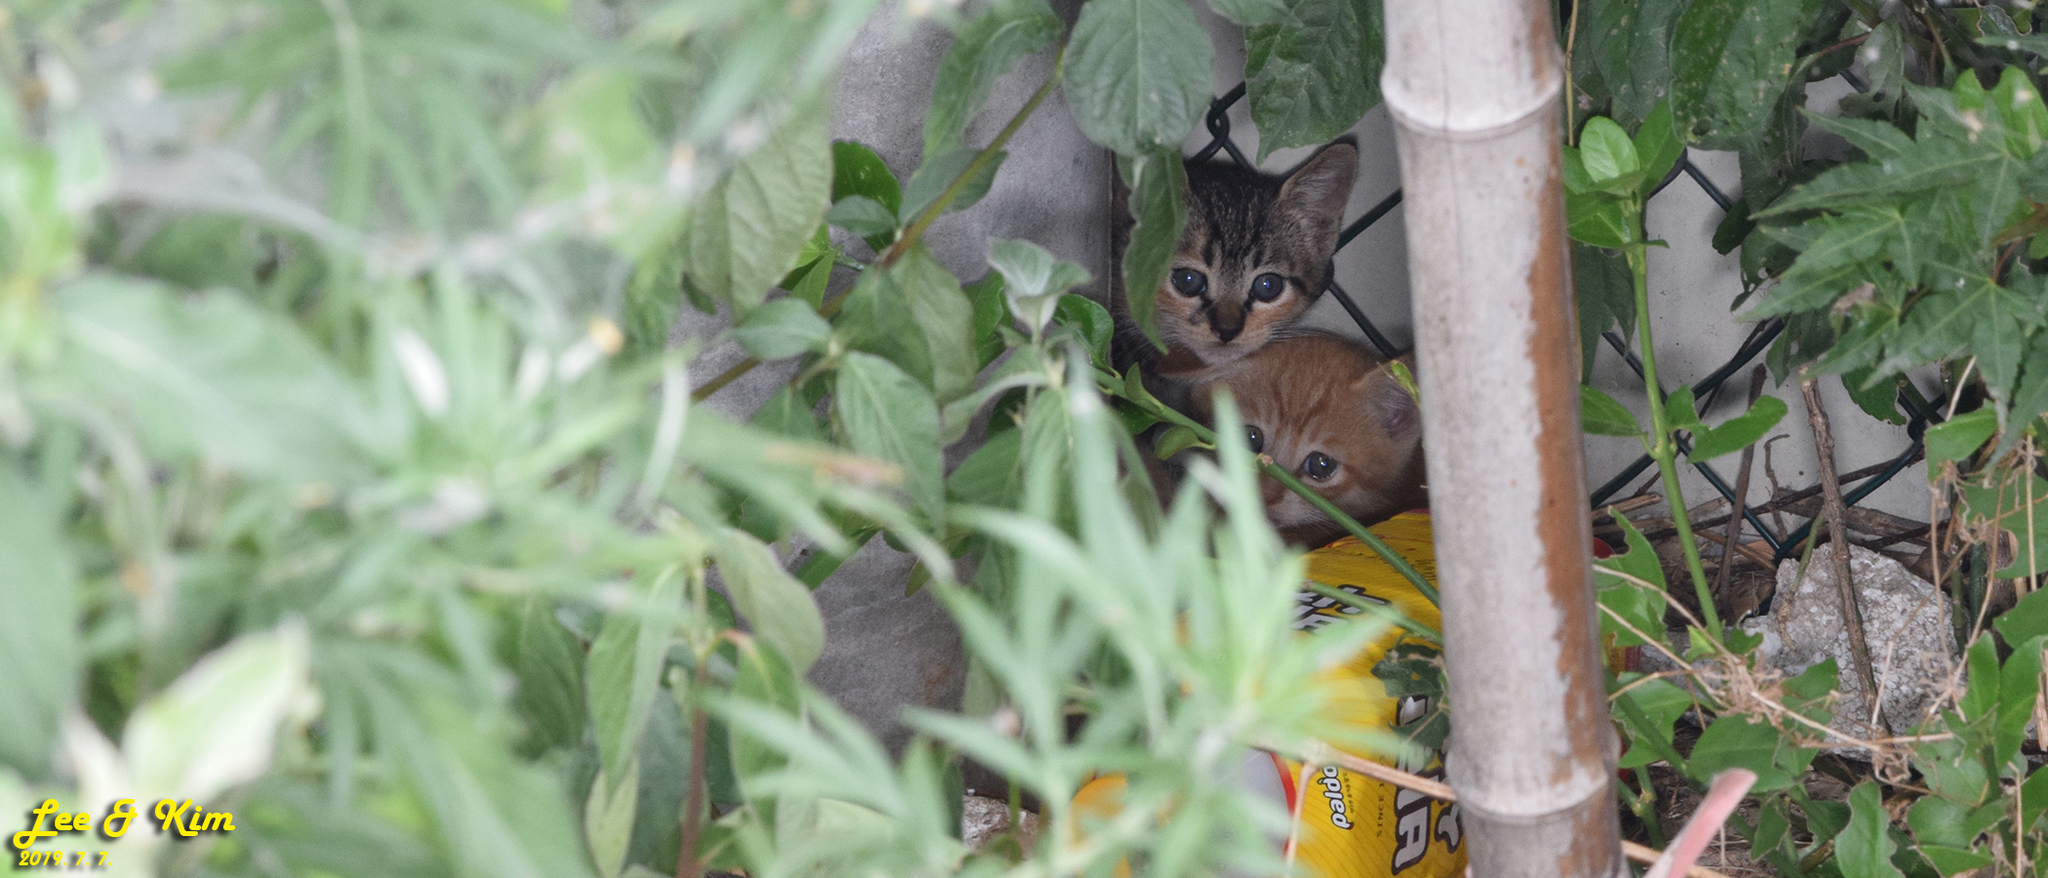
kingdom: Animalia
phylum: Chordata
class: Mammalia
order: Carnivora
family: Felidae
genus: Felis
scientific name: Felis catus
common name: Domestic cat
